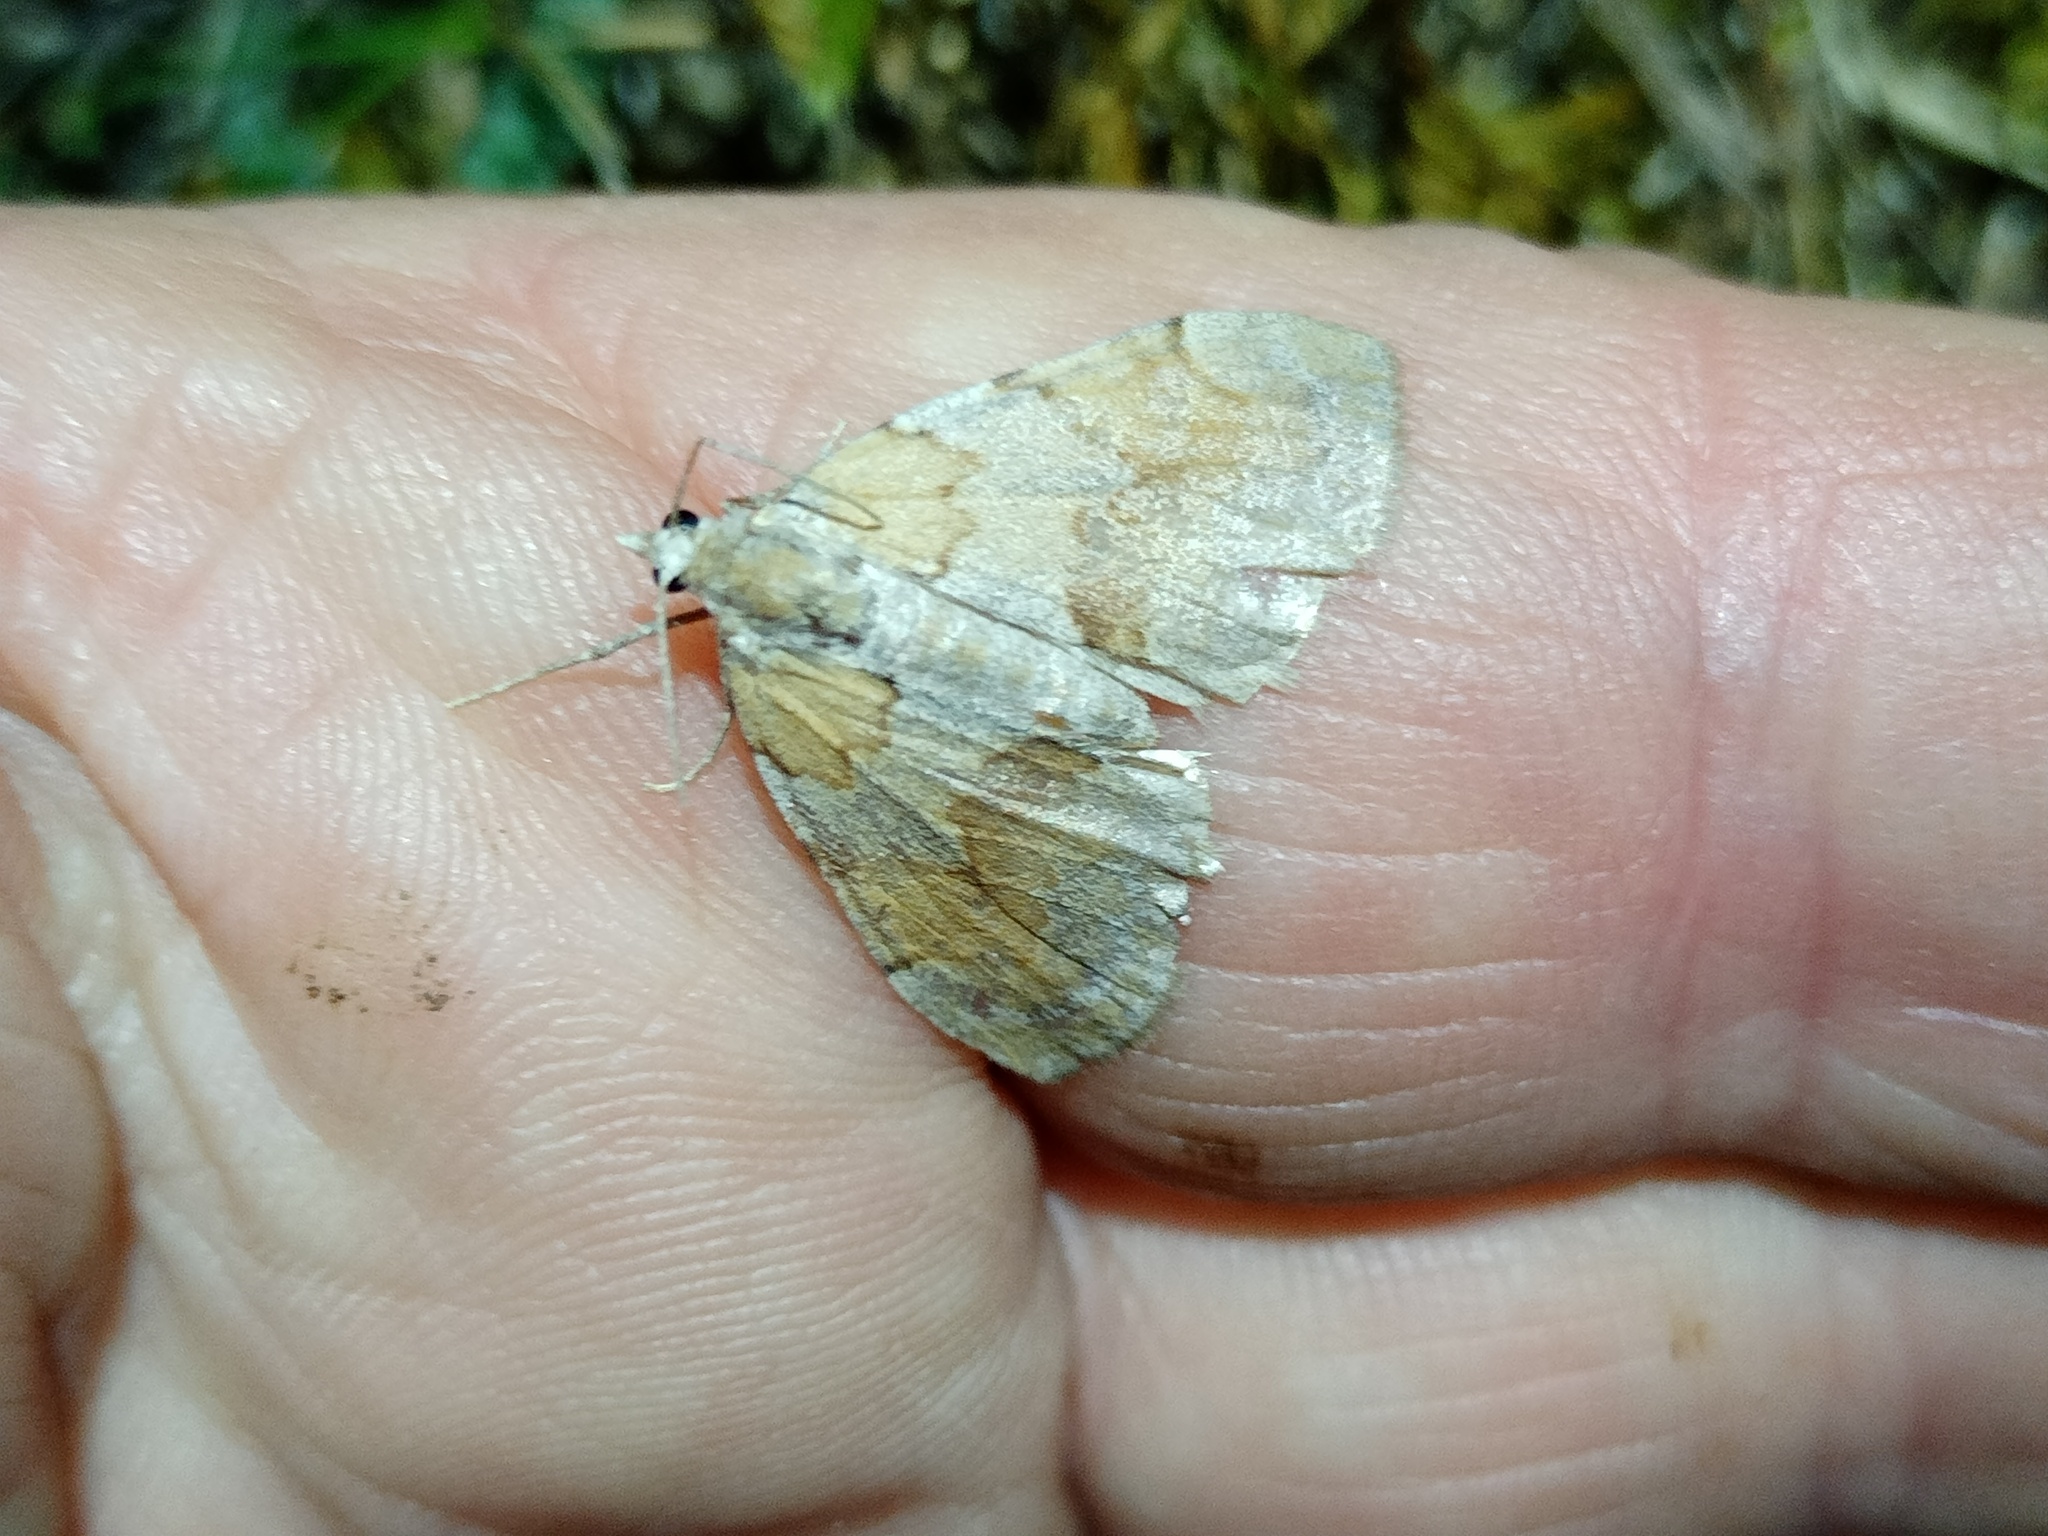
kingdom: Animalia
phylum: Arthropoda
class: Insecta
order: Lepidoptera
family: Geometridae
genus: Pennithera
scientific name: Pennithera firmata
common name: Pine carpet
